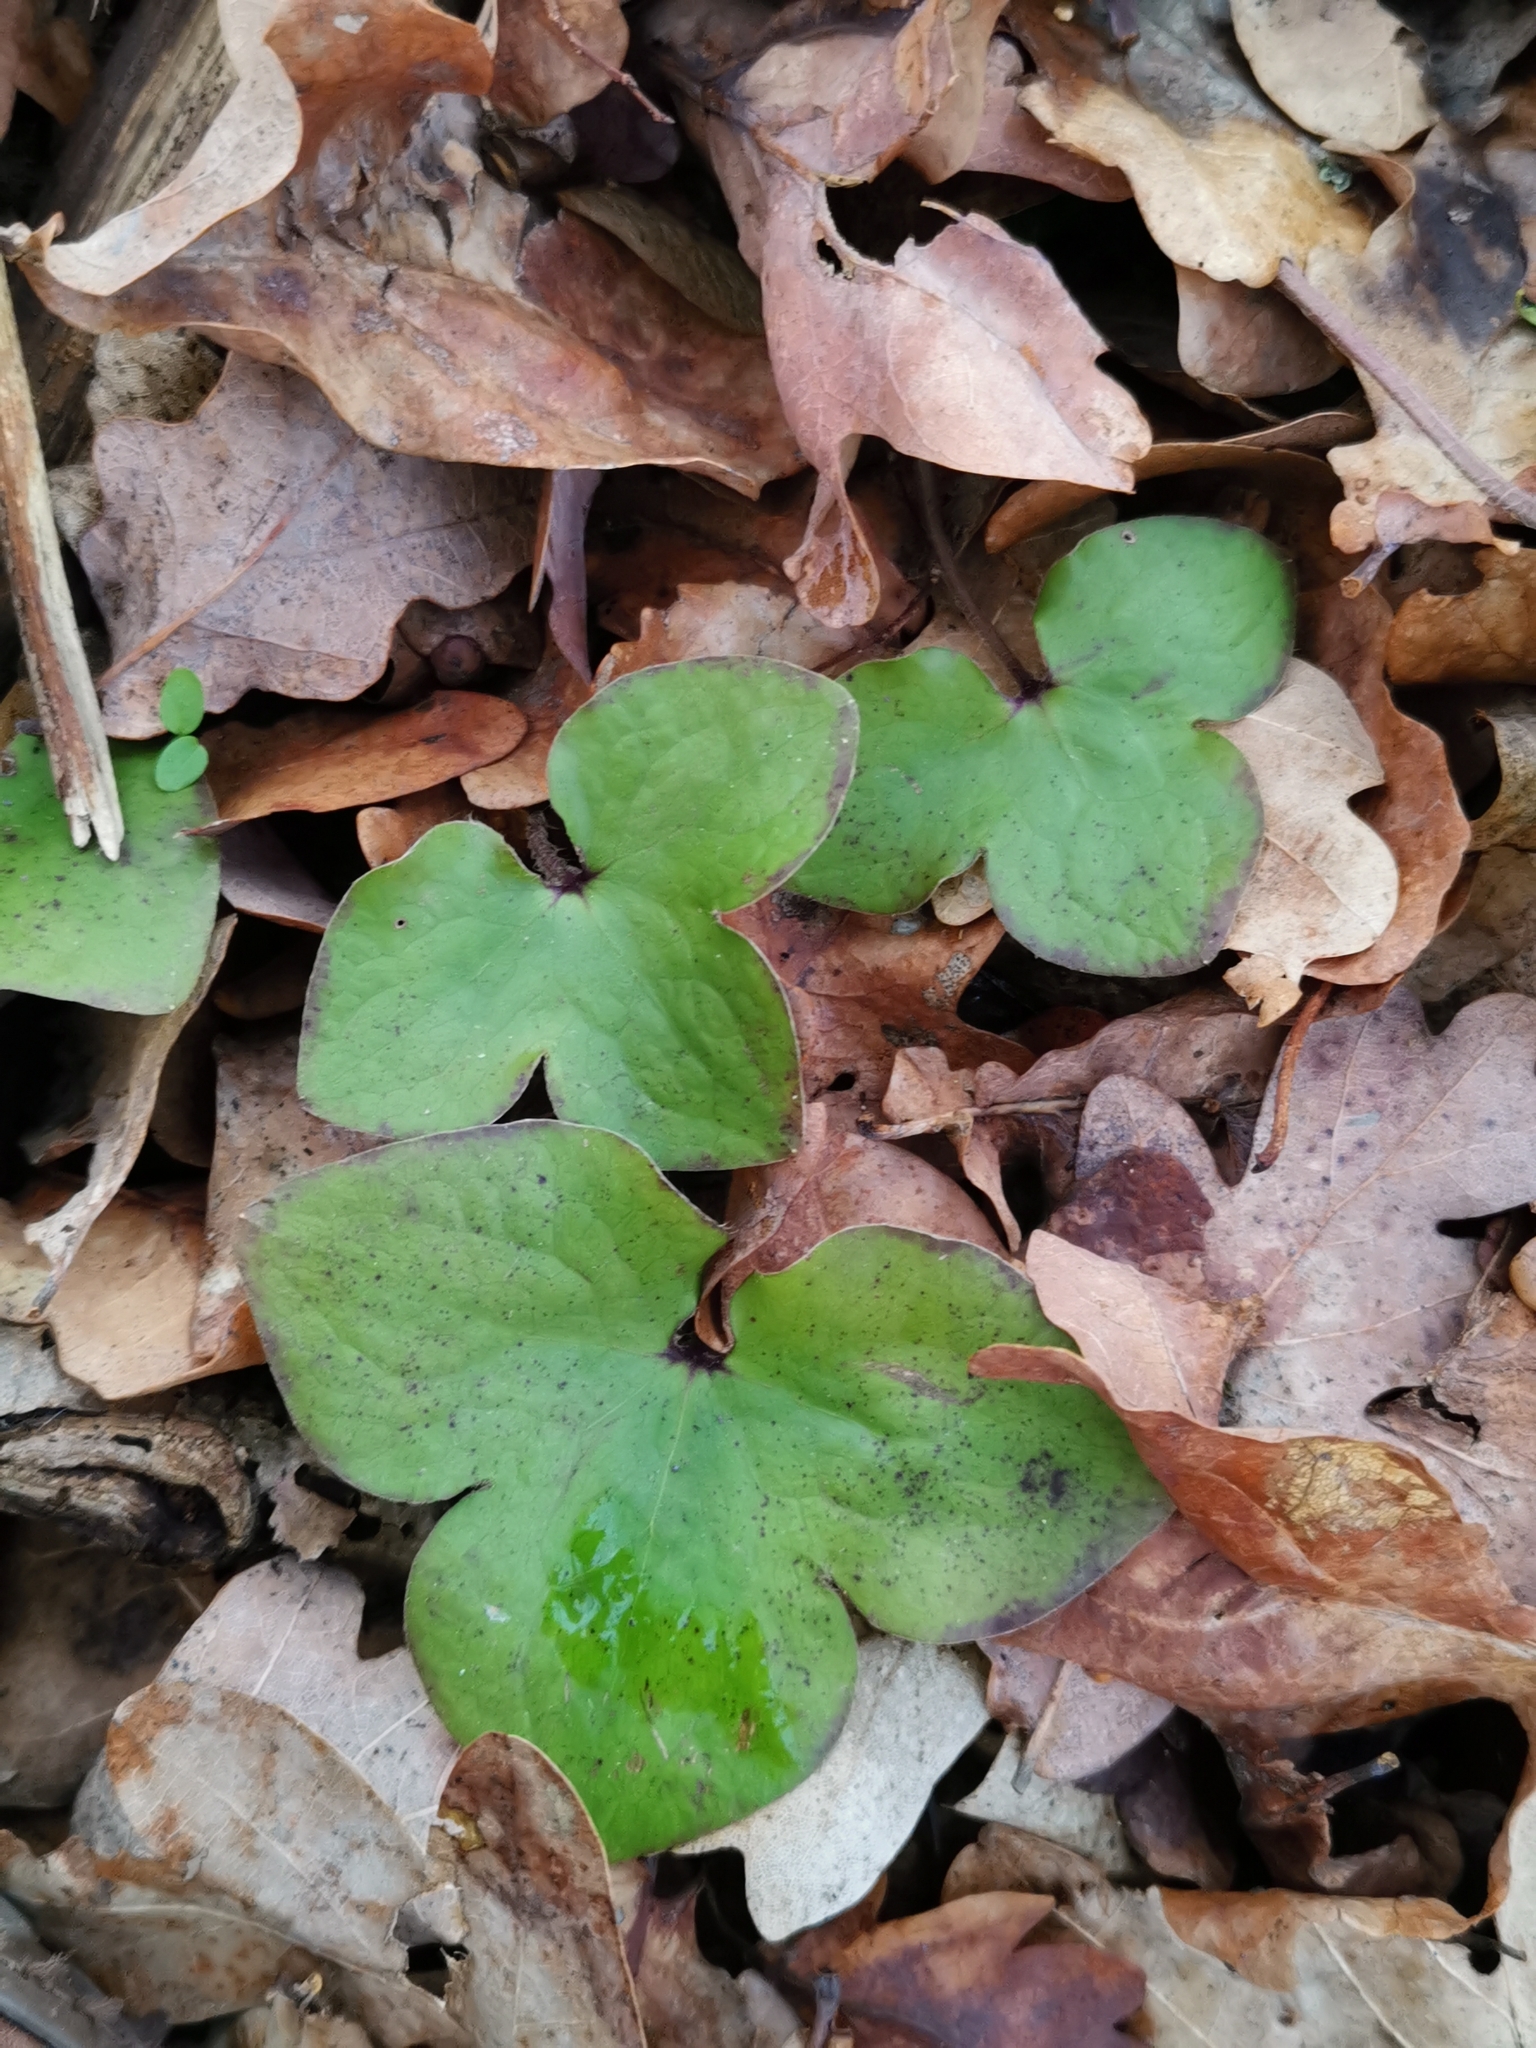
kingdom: Plantae
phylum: Tracheophyta
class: Magnoliopsida
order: Ranunculales
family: Ranunculaceae
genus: Hepatica
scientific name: Hepatica nobilis
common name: Liverleaf
